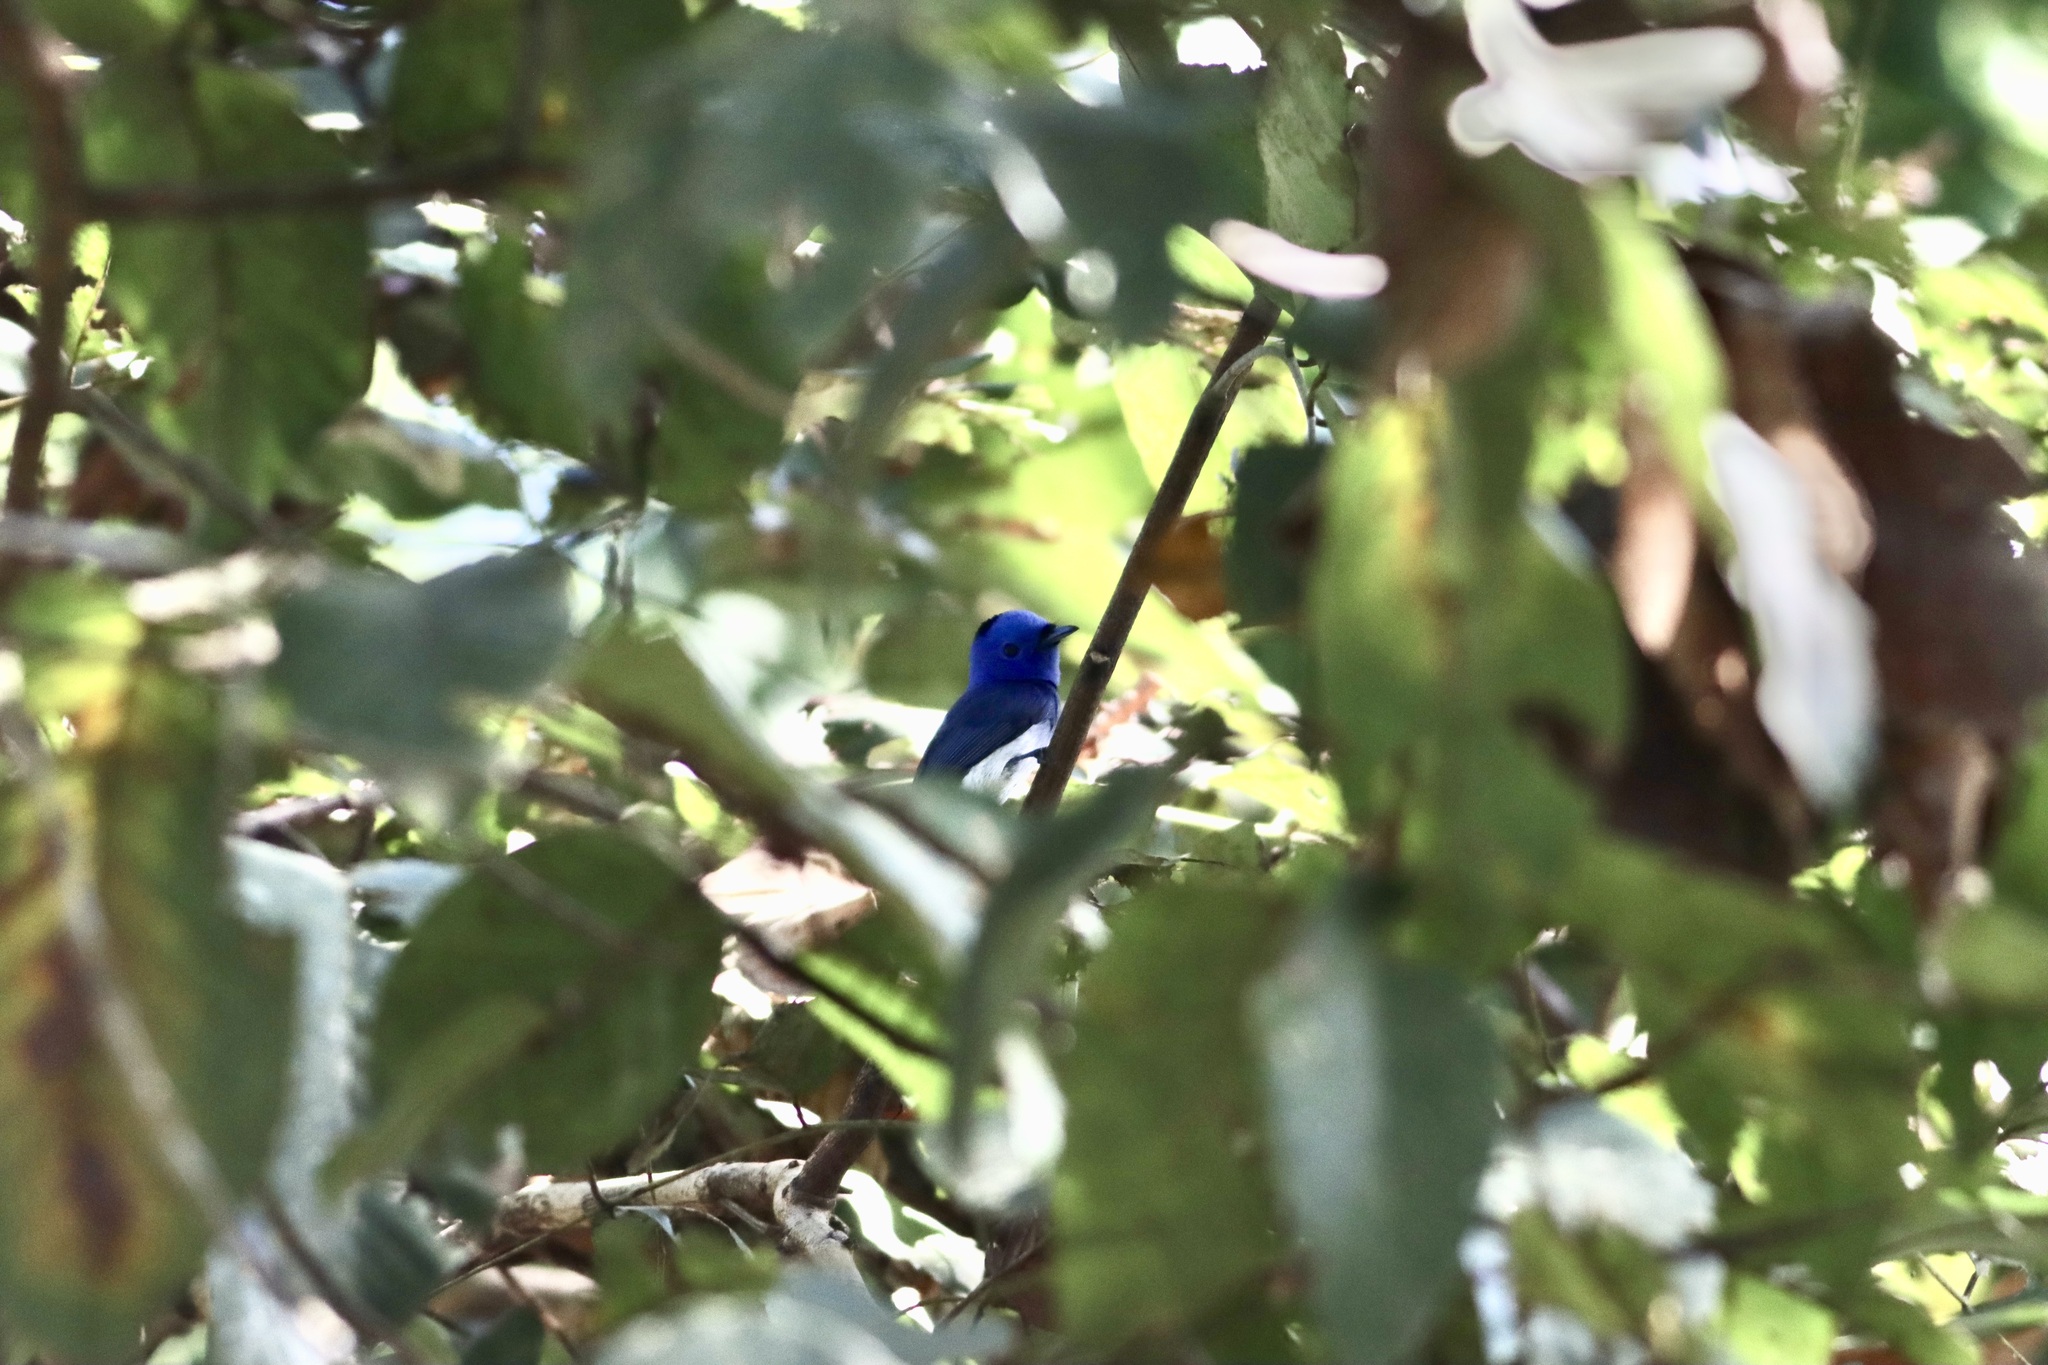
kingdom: Animalia
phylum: Chordata
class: Aves
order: Passeriformes
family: Monarchidae
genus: Hypothymis
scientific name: Hypothymis azurea
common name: Black-naped monarch
